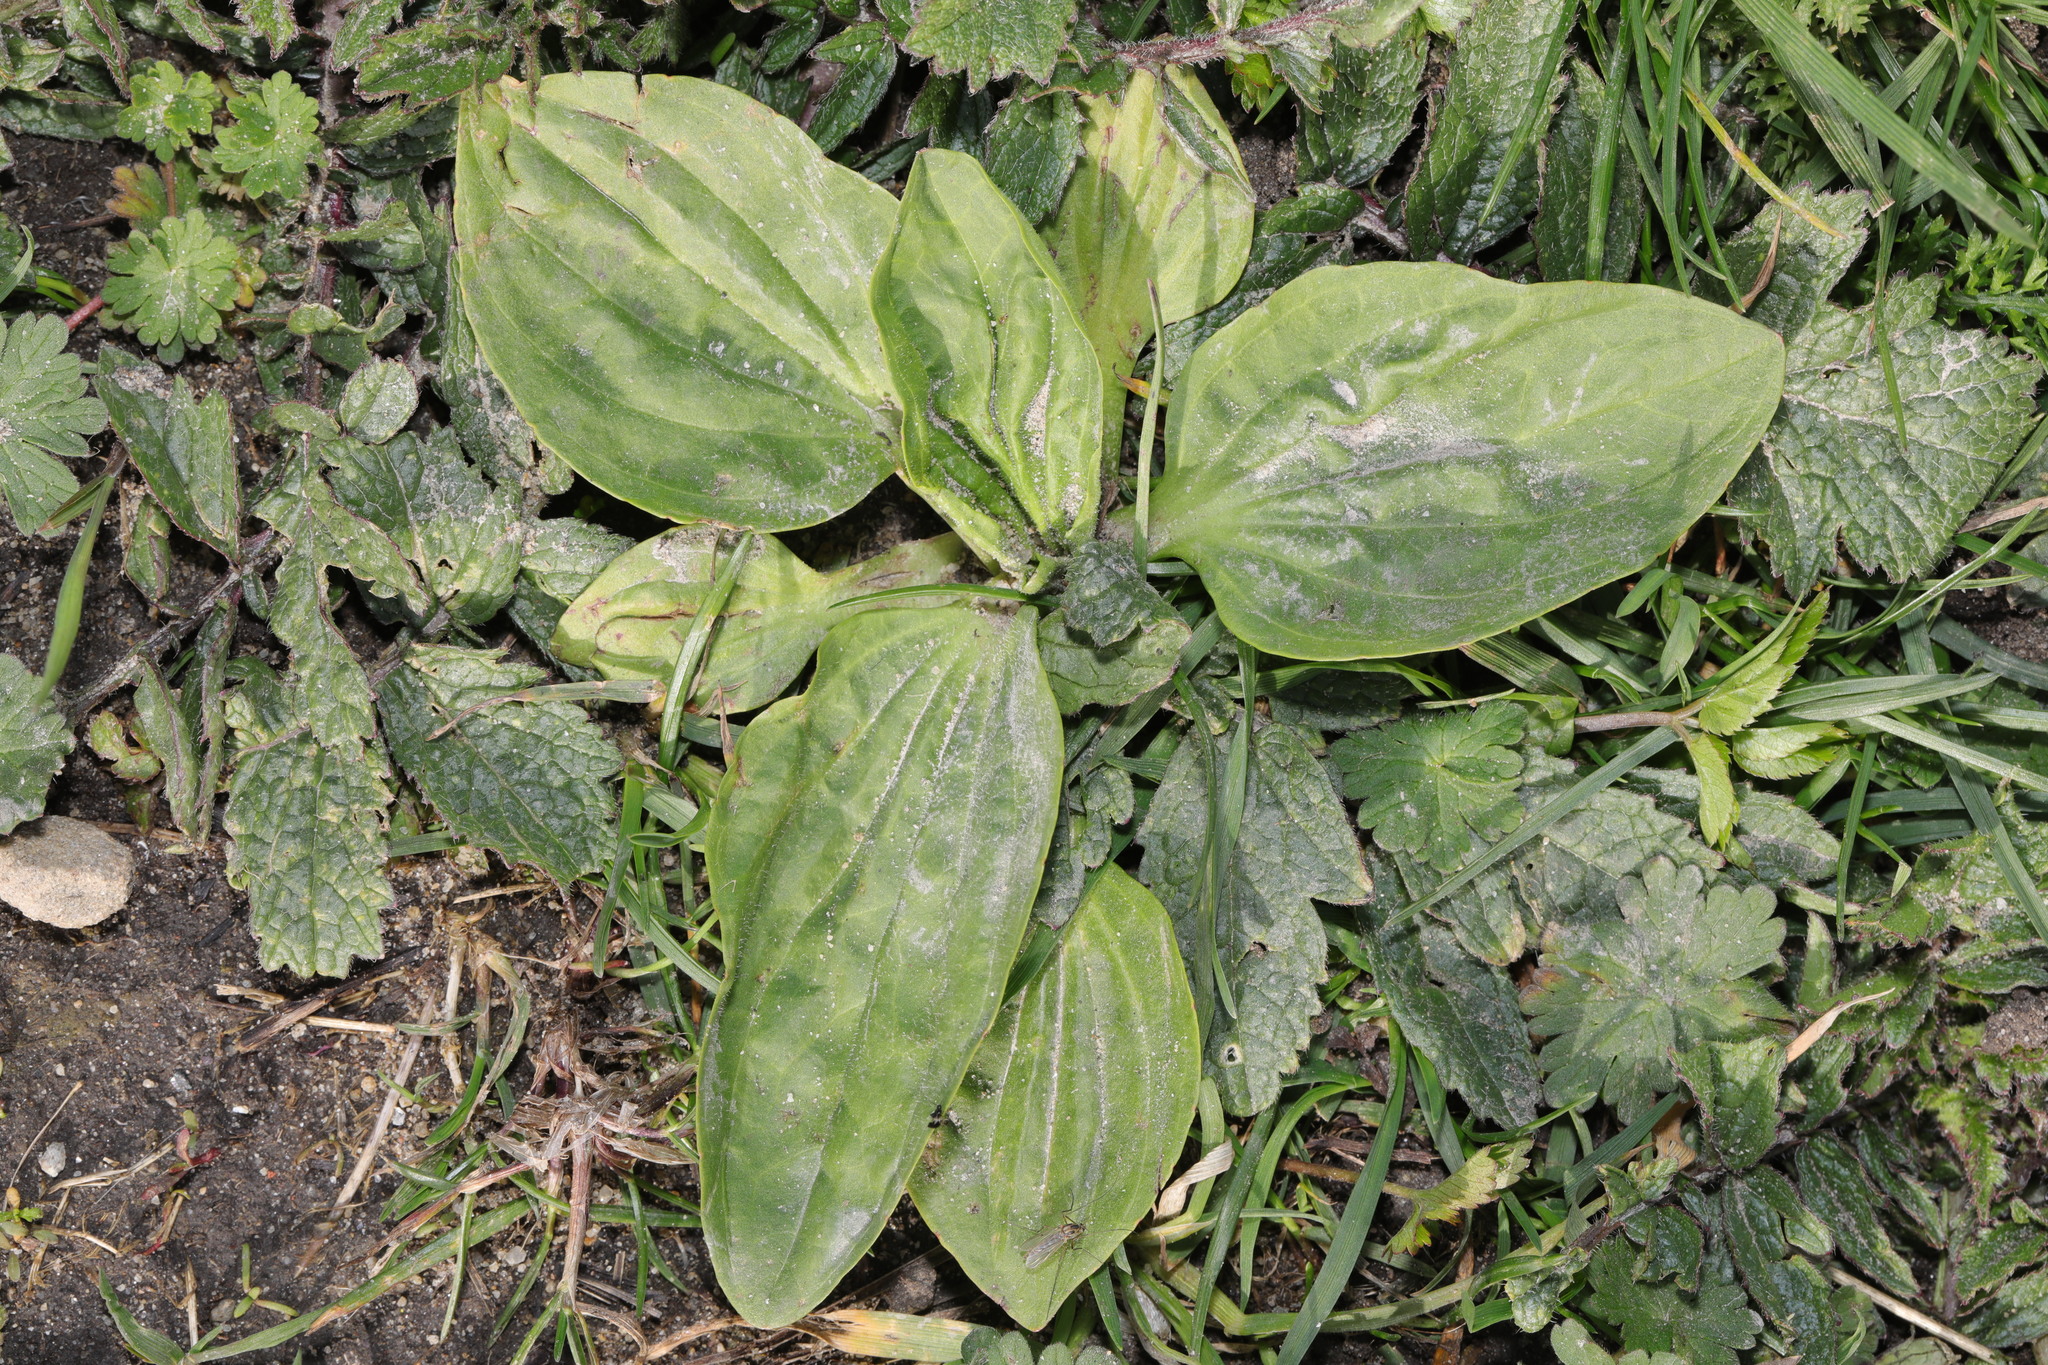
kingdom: Plantae
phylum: Tracheophyta
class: Magnoliopsida
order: Lamiales
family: Plantaginaceae
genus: Plantago
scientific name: Plantago major
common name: Common plantain
